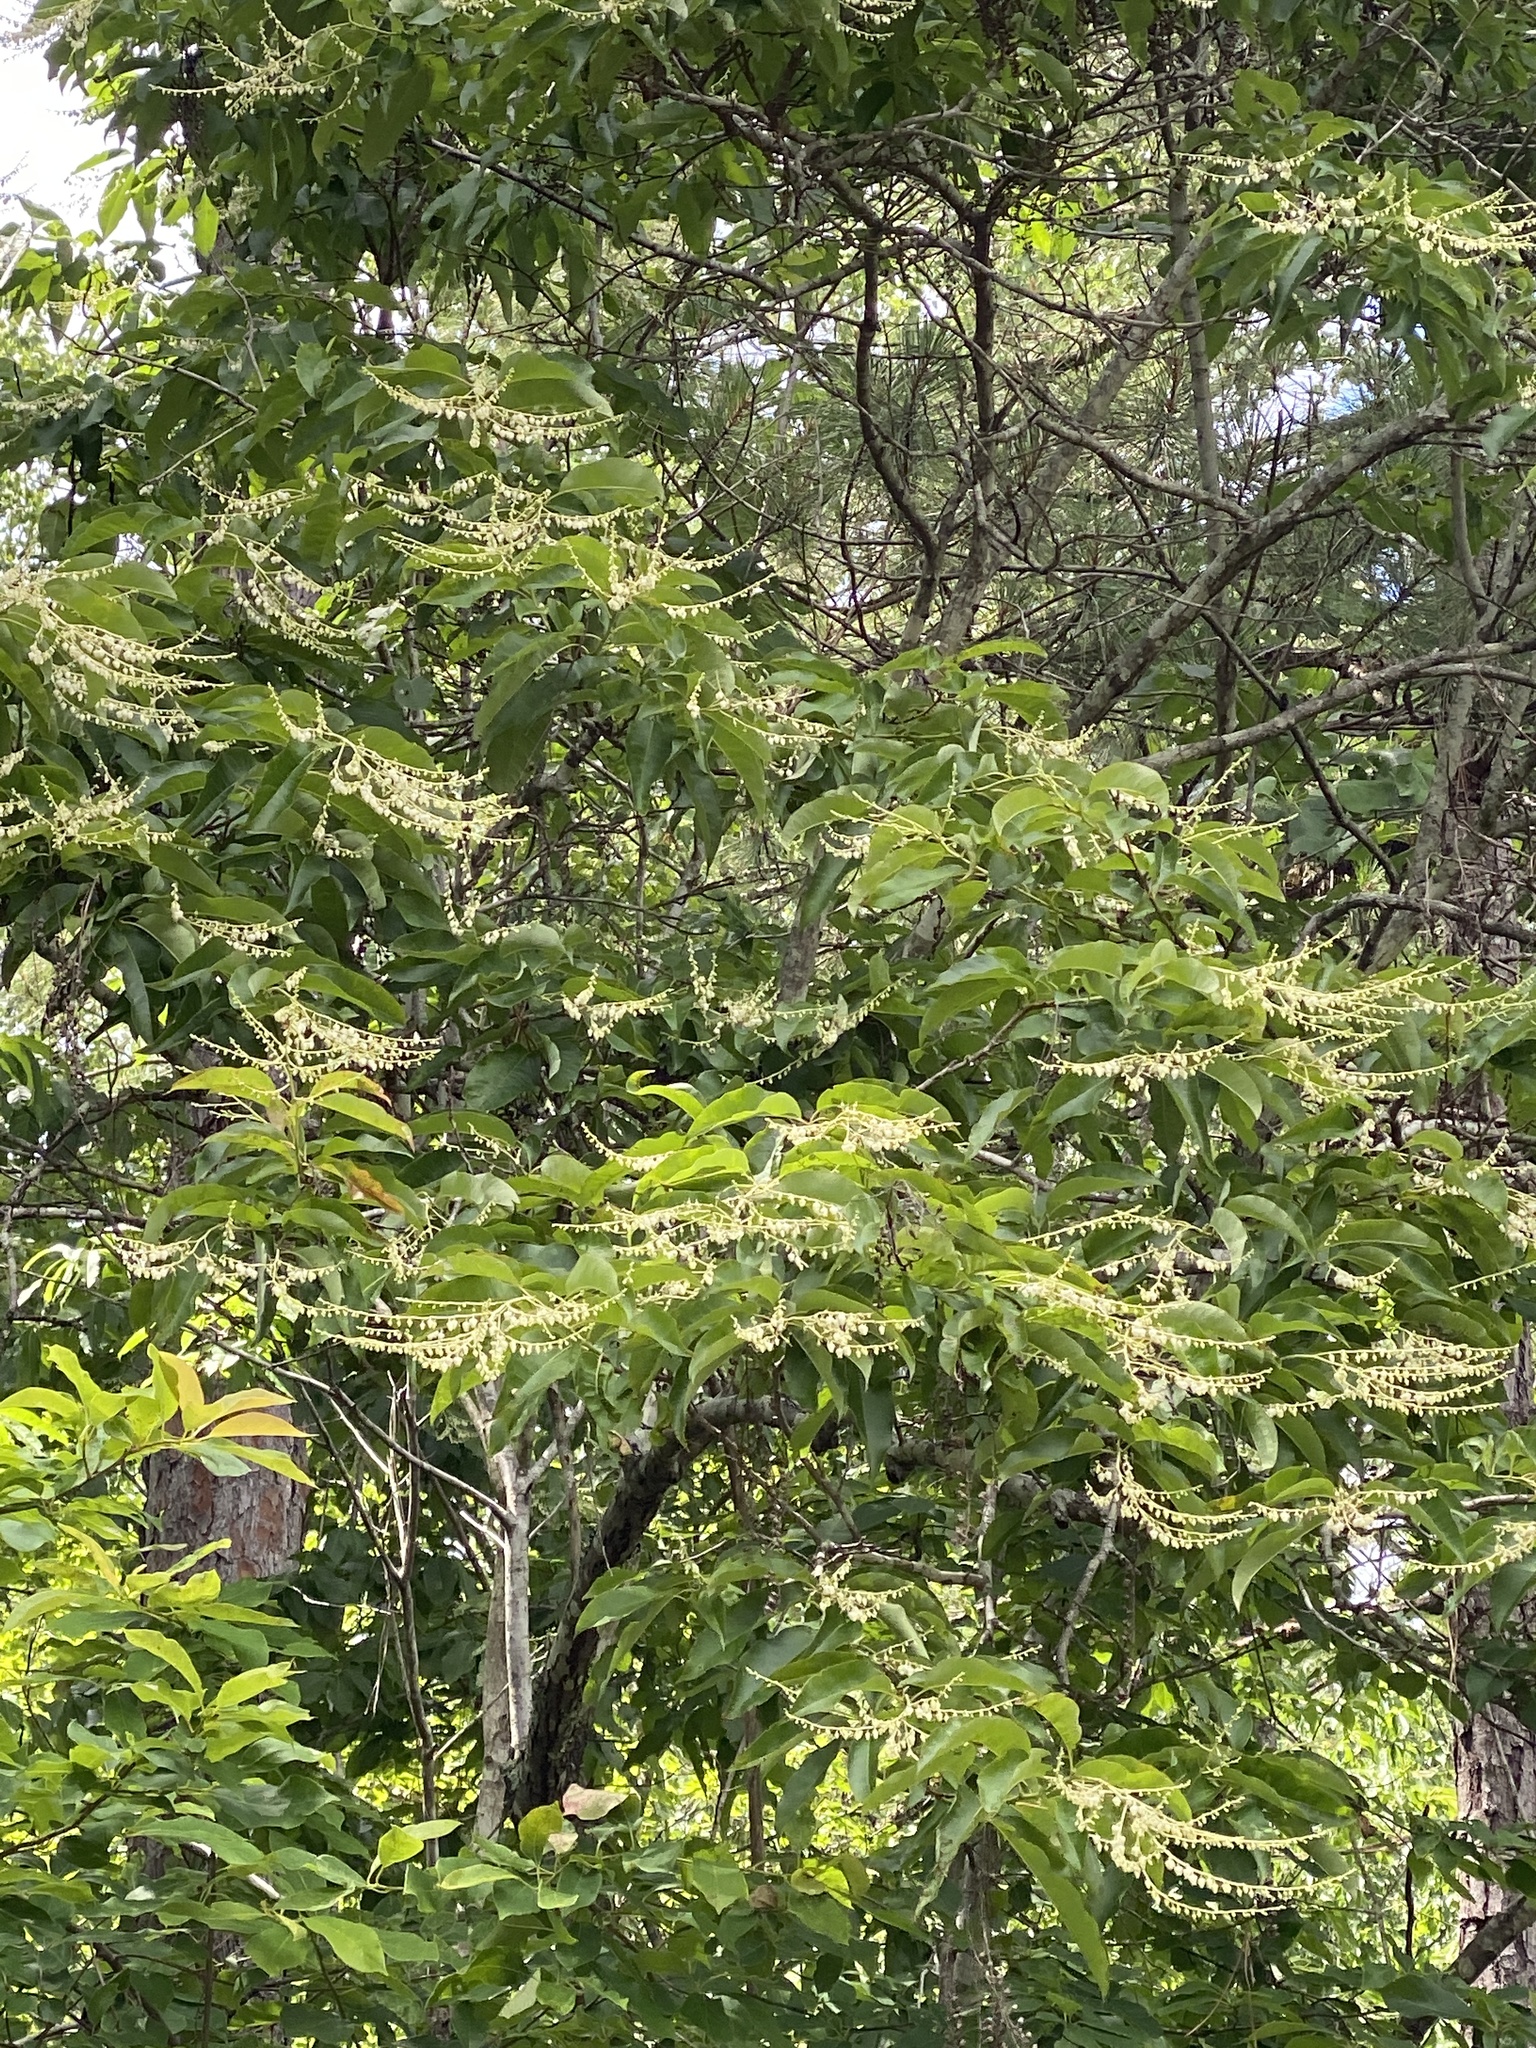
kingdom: Plantae
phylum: Tracheophyta
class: Magnoliopsida
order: Ericales
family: Ericaceae
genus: Oxydendrum
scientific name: Oxydendrum arboreum
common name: Sourwood
